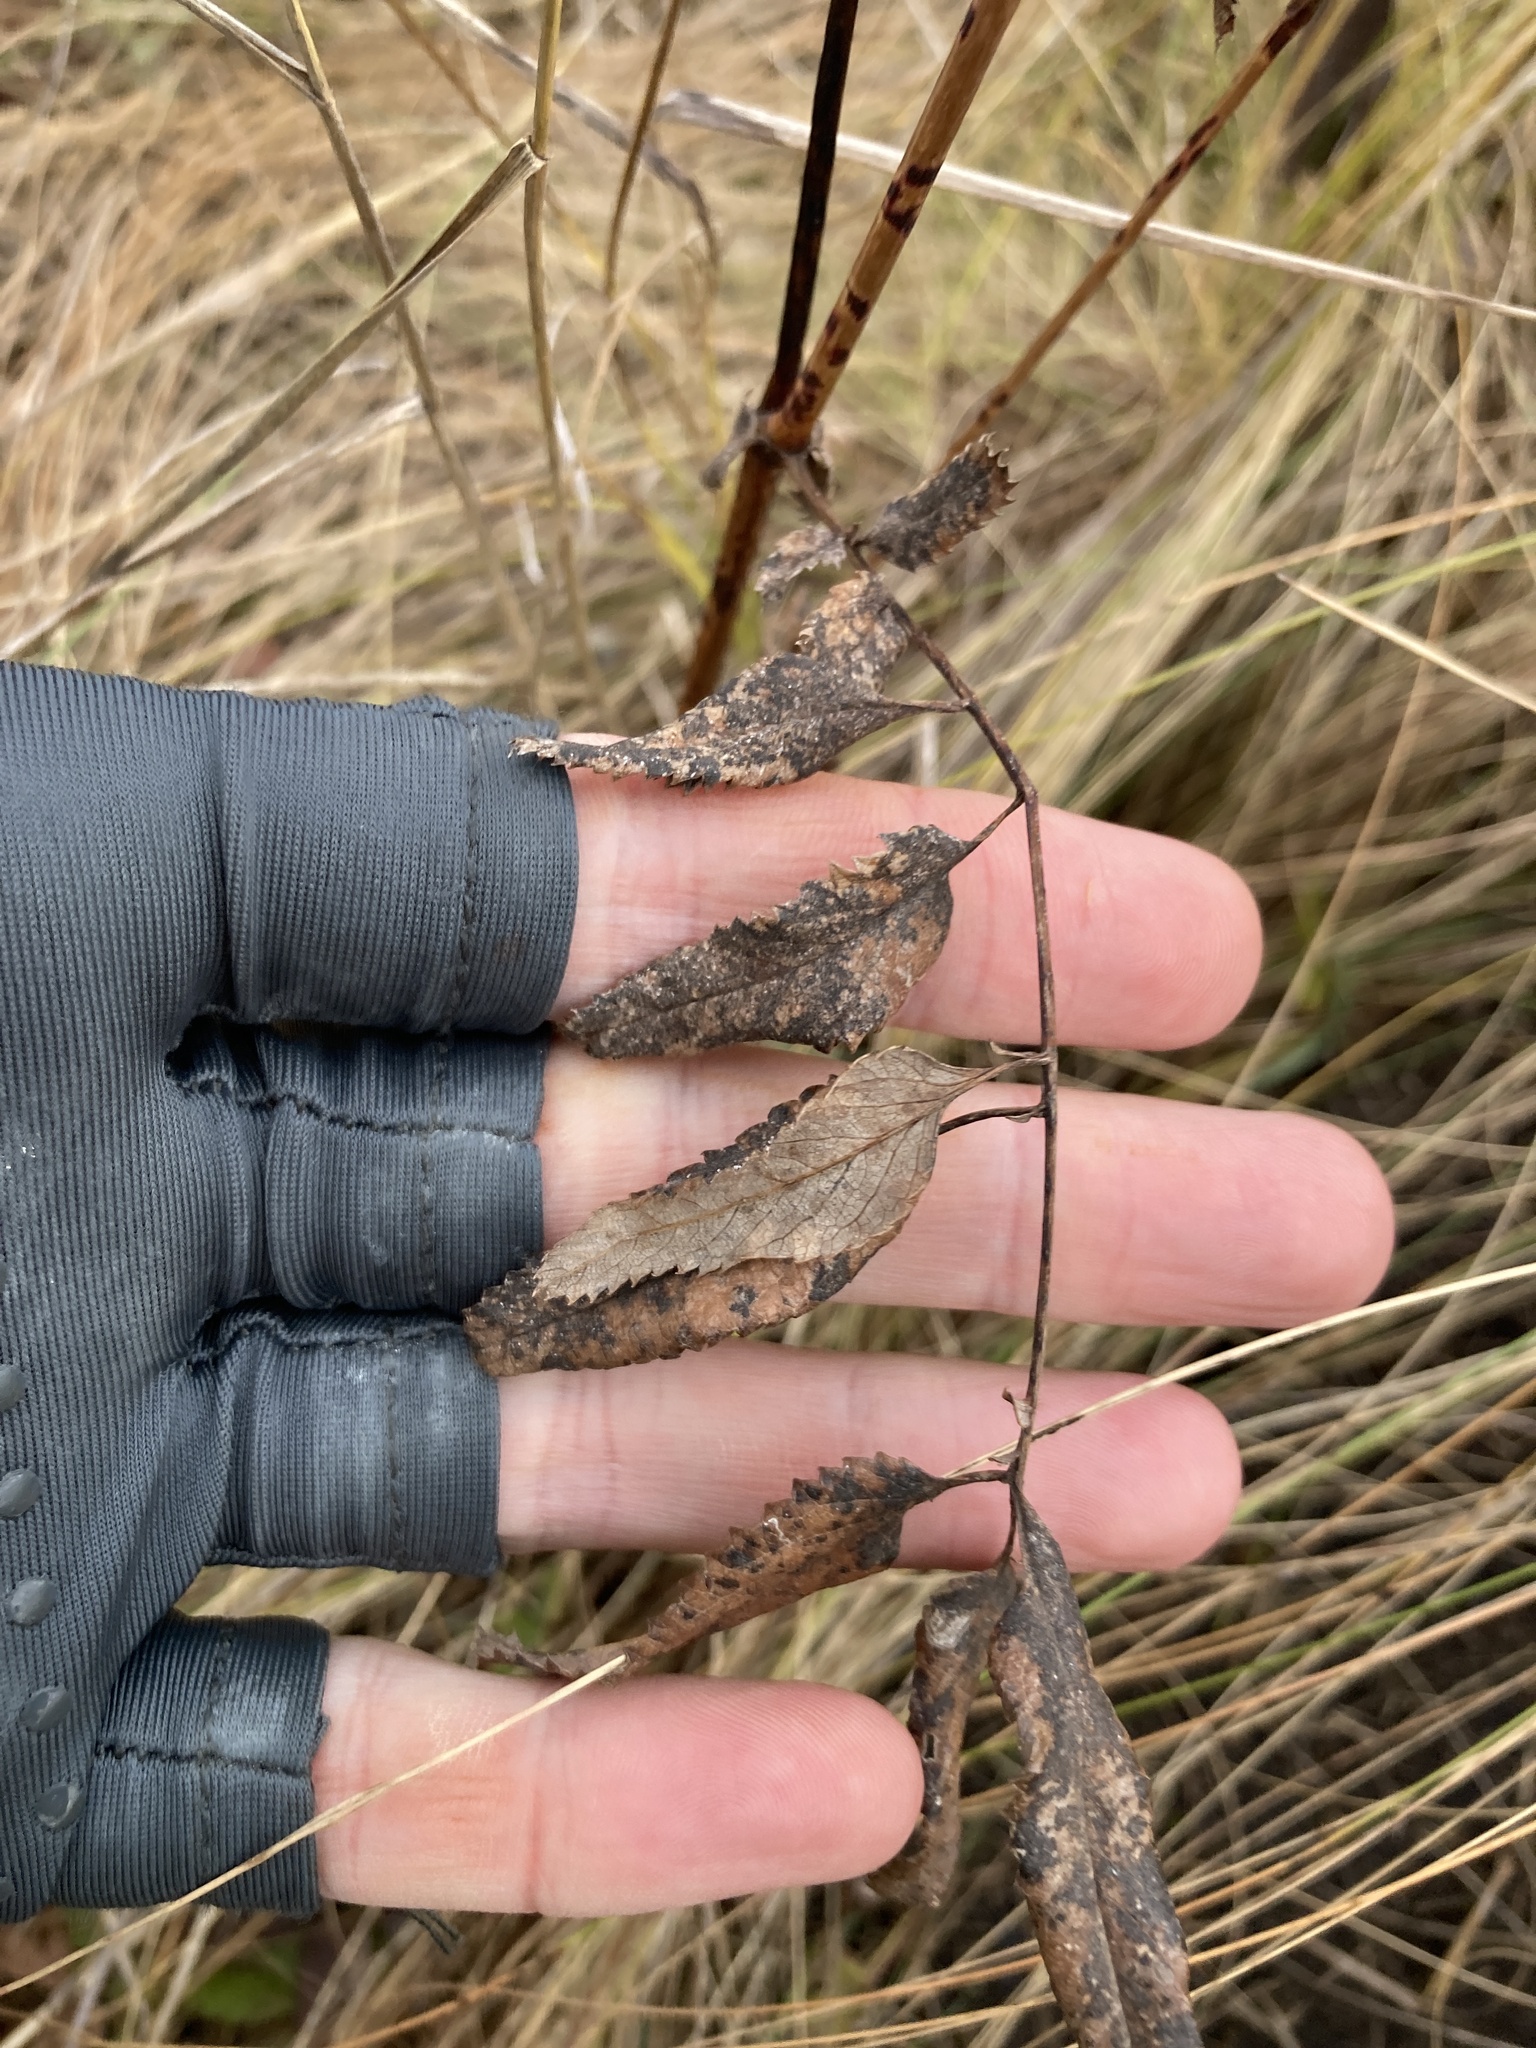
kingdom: Plantae
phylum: Tracheophyta
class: Magnoliopsida
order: Rosales
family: Rosaceae
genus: Sanguisorba
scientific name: Sanguisorba officinalis
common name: Great burnet
